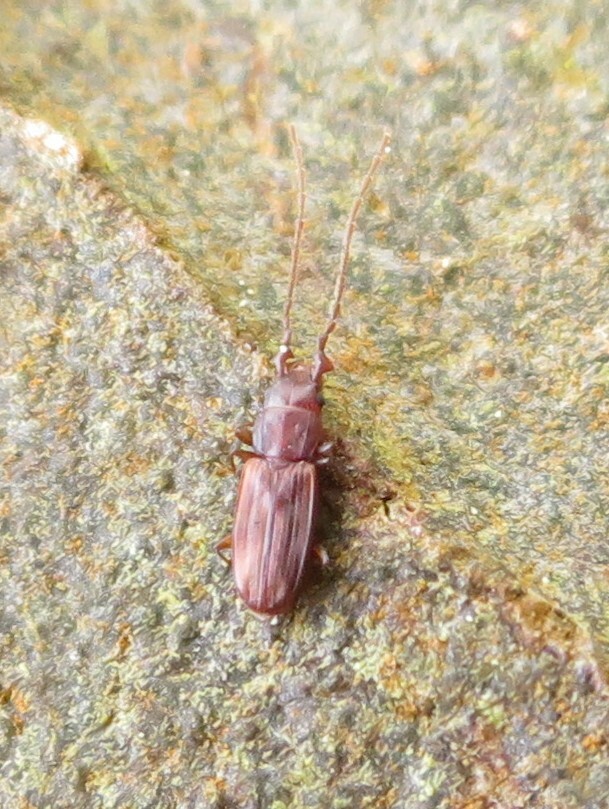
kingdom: Animalia
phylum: Arthropoda
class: Insecta
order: Coleoptera
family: Laemophloeidae
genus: Microbrontes
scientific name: Microbrontes
